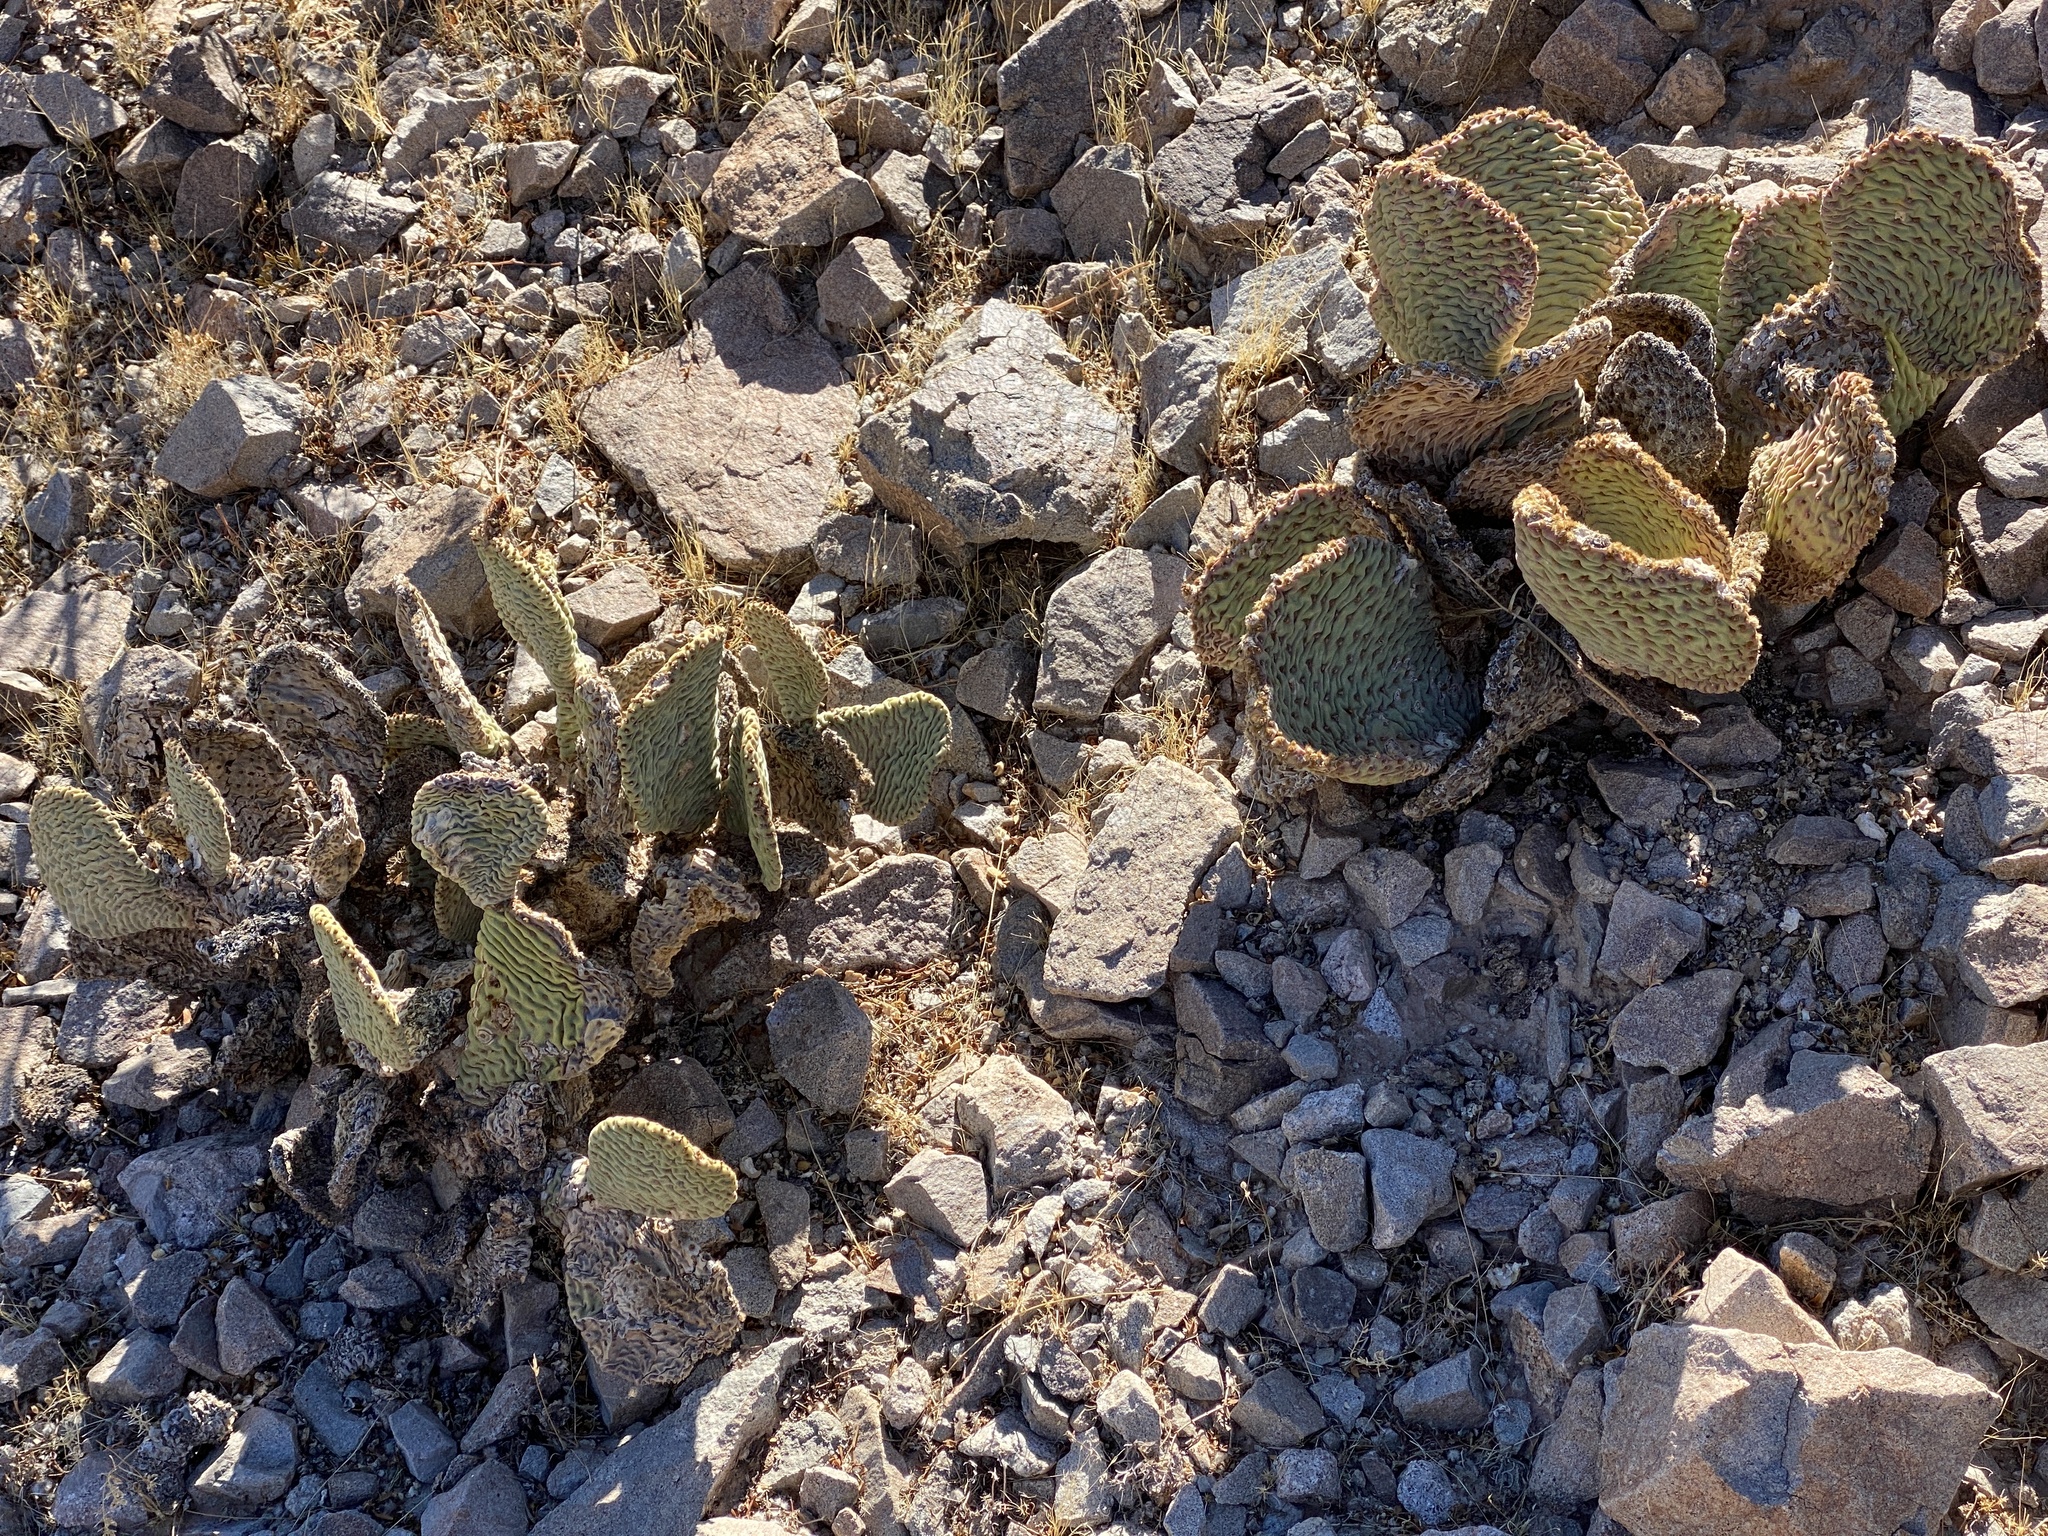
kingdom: Plantae
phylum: Tracheophyta
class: Magnoliopsida
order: Caryophyllales
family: Cactaceae
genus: Opuntia
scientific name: Opuntia basilaris
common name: Beavertail prickly-pear
